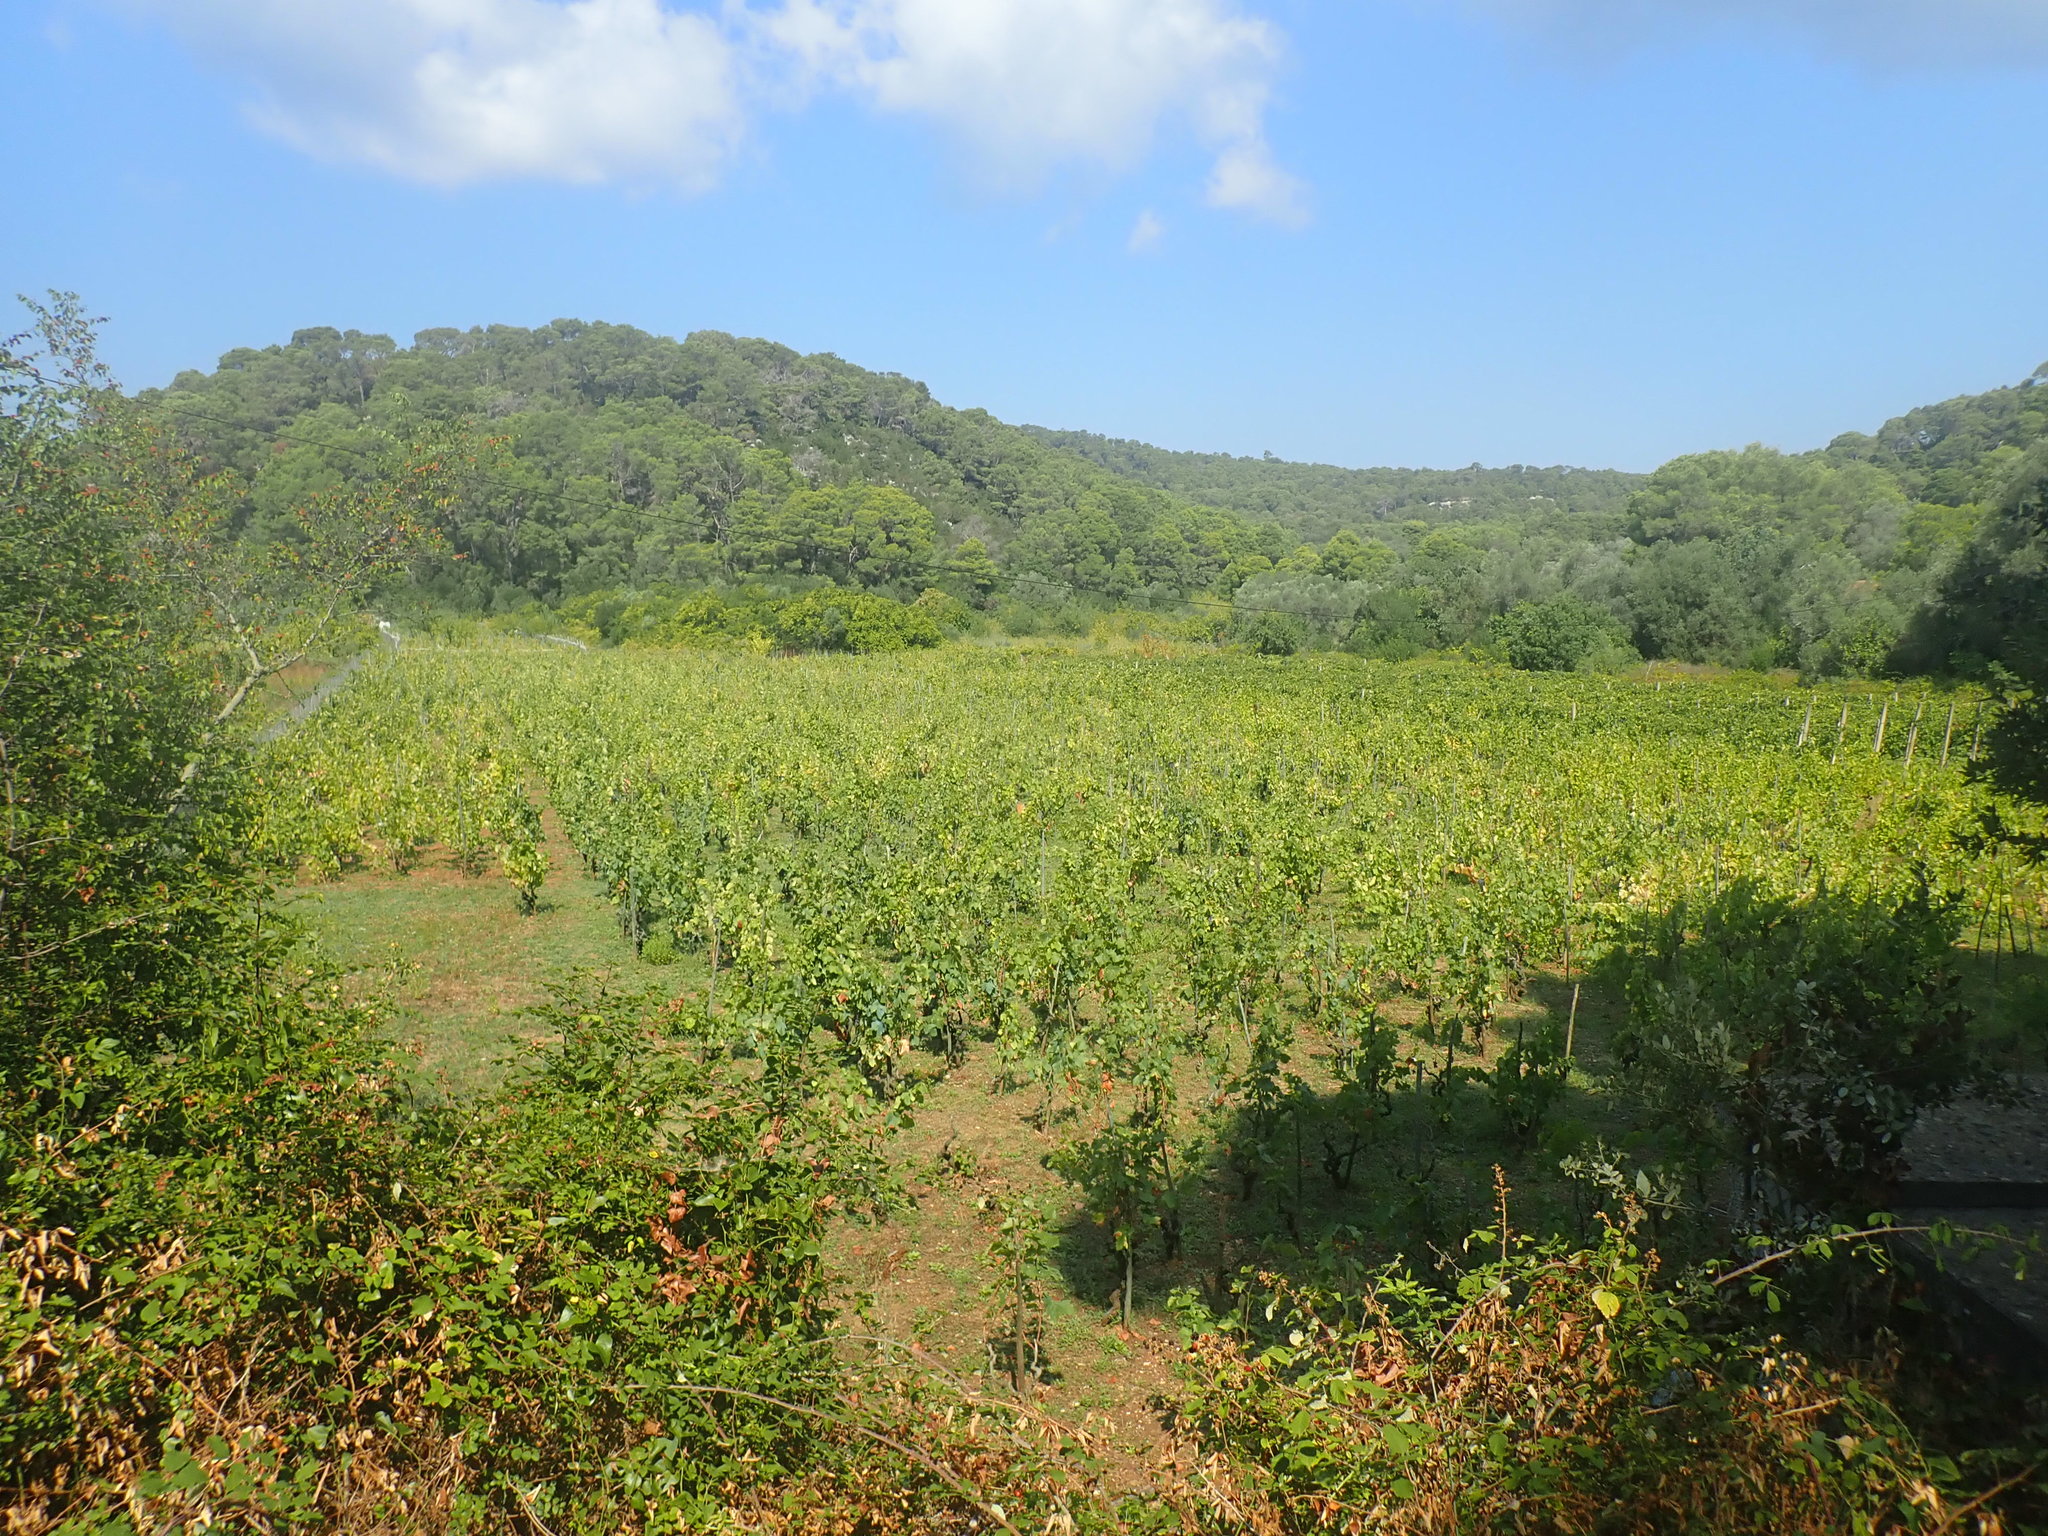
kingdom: Plantae
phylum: Tracheophyta
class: Magnoliopsida
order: Vitales
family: Vitaceae
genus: Vitis
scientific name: Vitis vinifera
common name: Grape-vine
